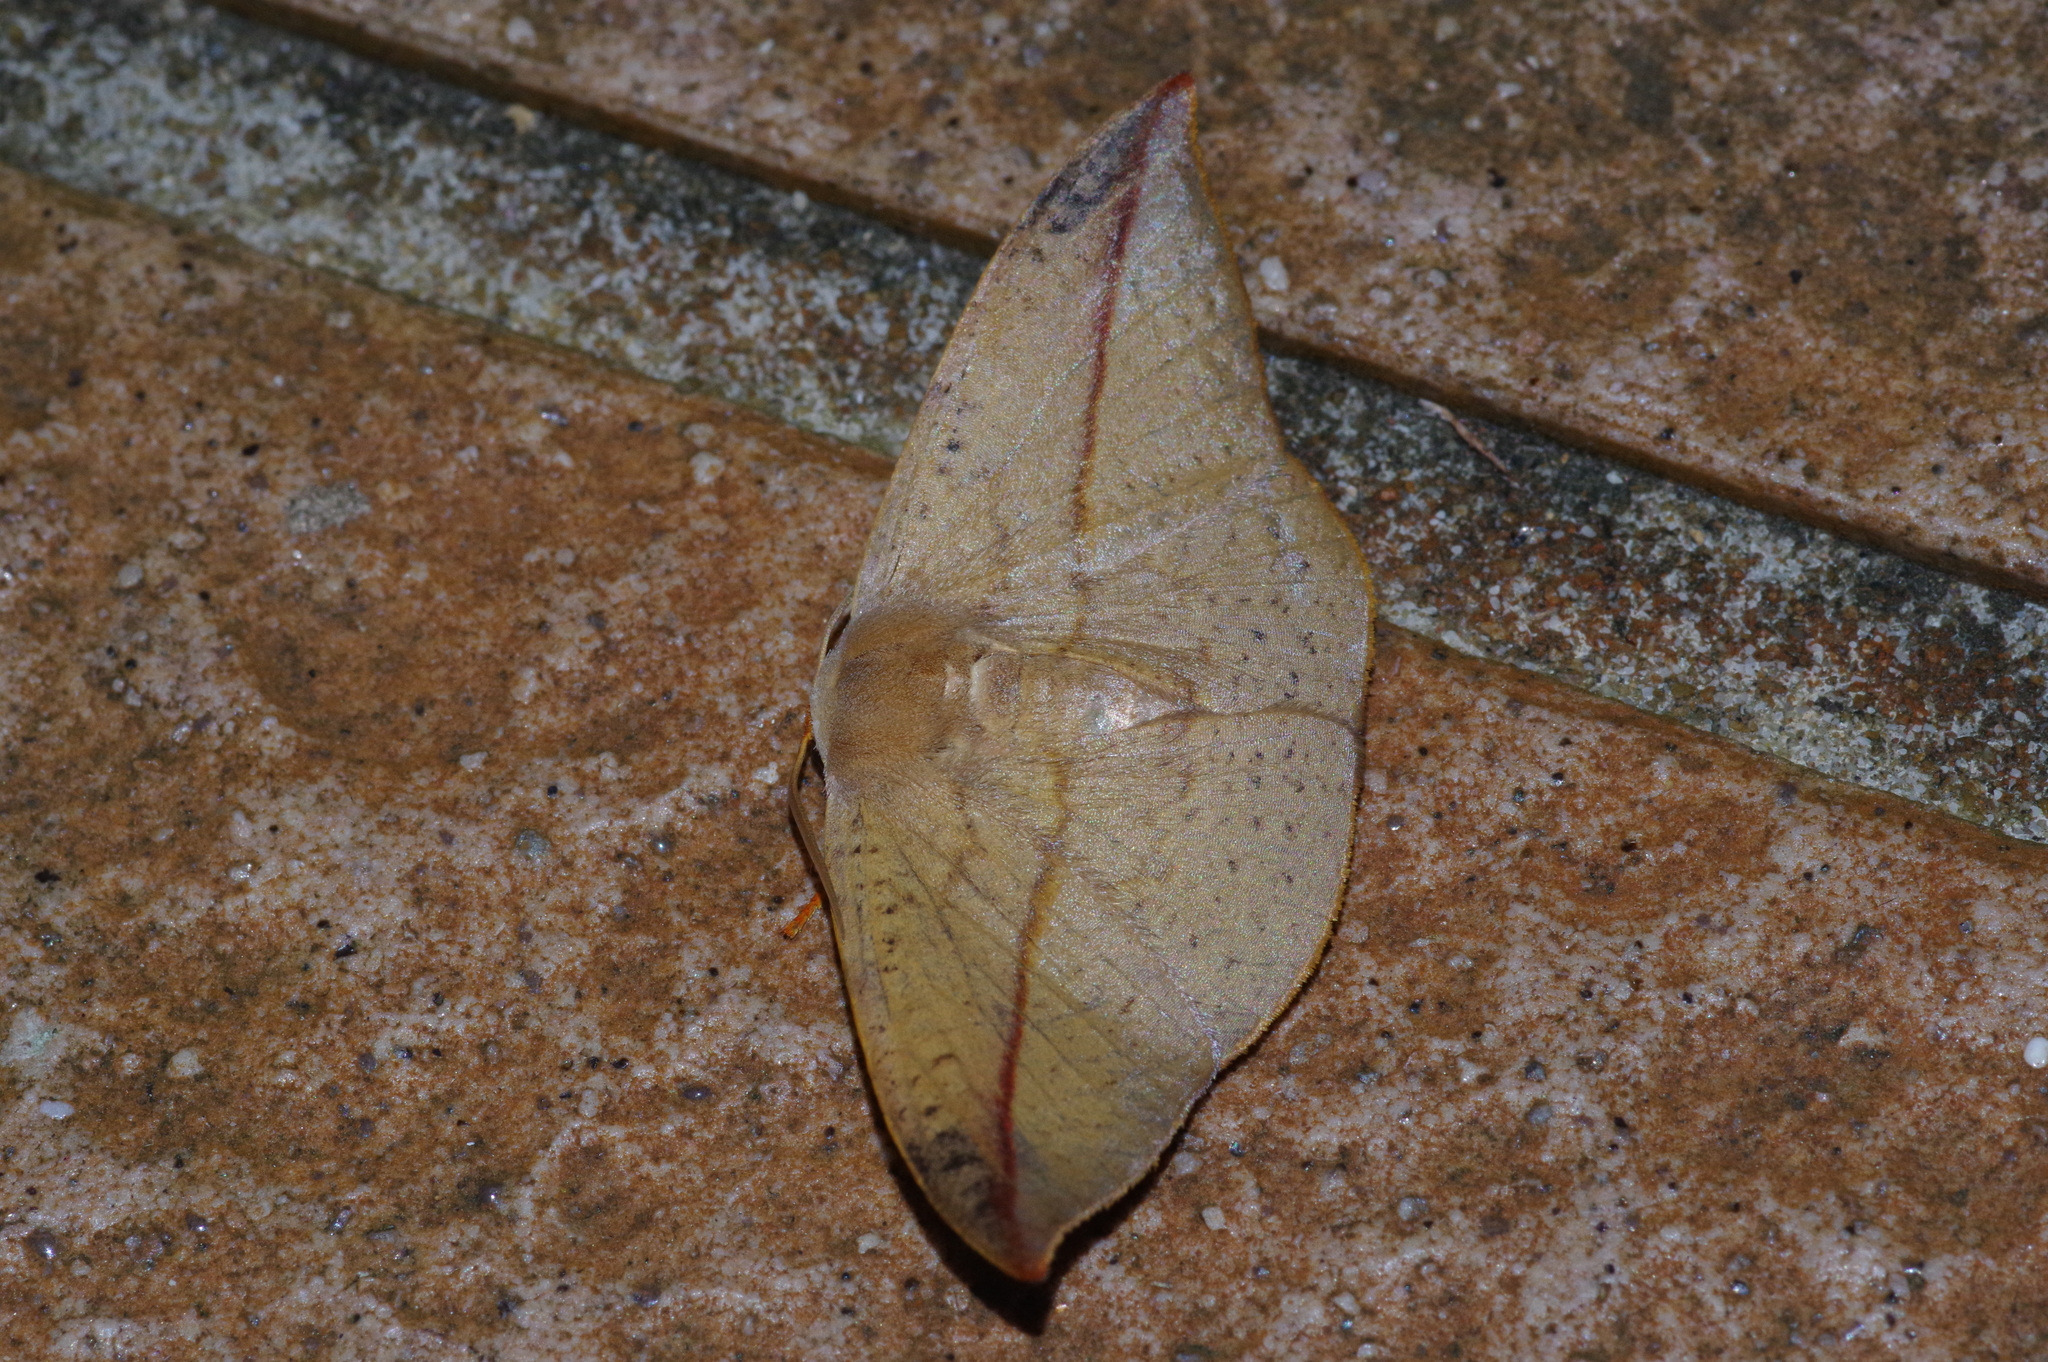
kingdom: Animalia
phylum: Arthropoda
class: Insecta
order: Lepidoptera
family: Drepanidae
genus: Oreta
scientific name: Oreta insignis
